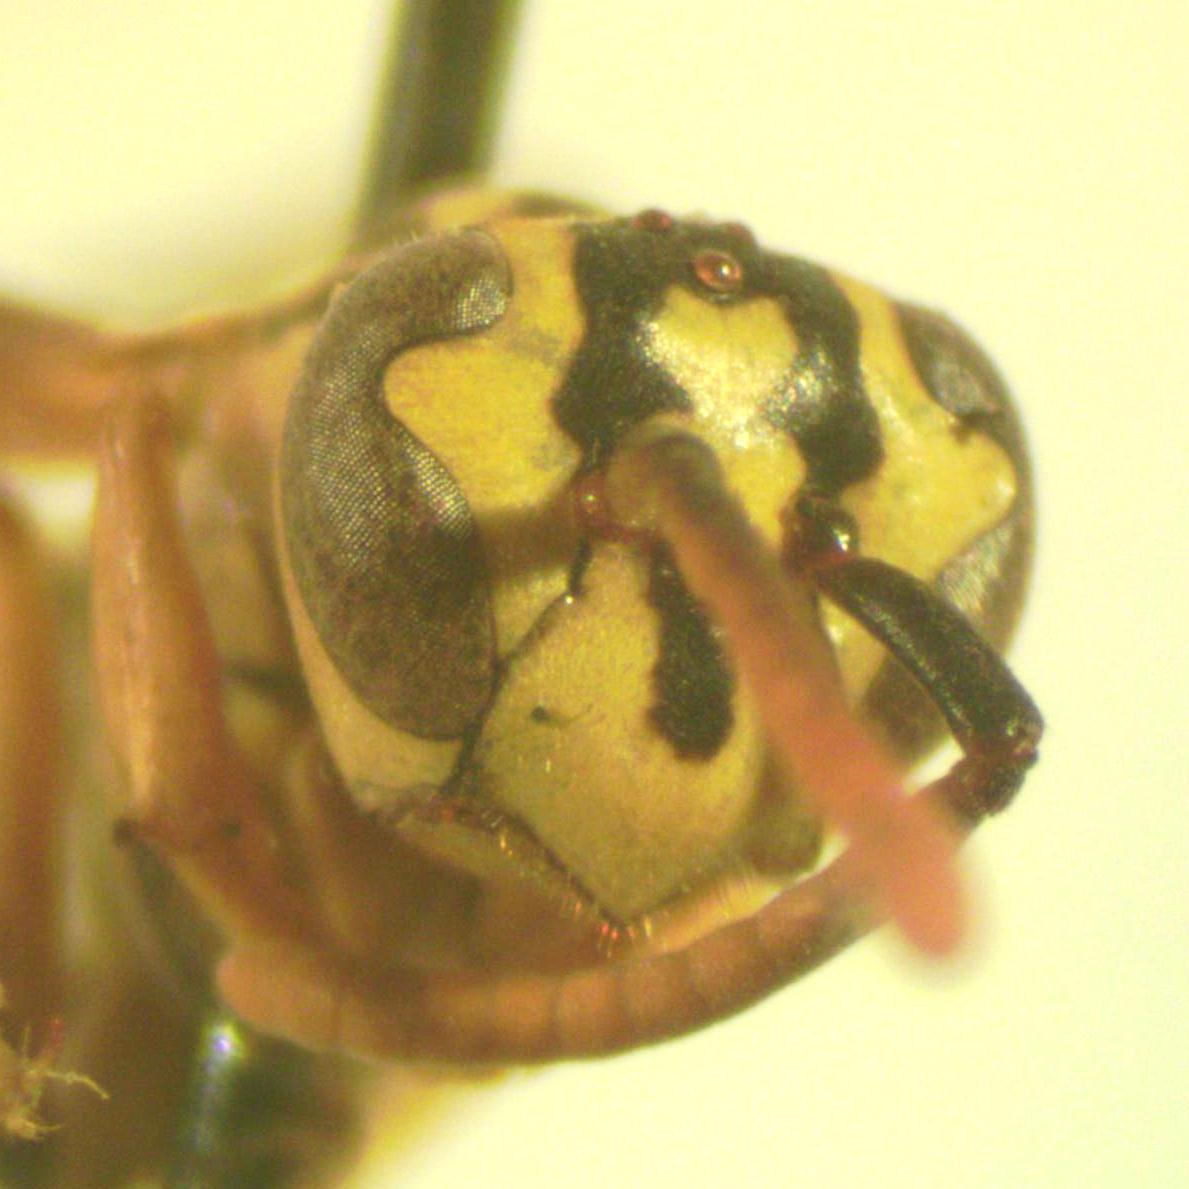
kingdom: Animalia
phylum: Arthropoda
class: Insecta
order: Hymenoptera
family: Vespidae
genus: Agelaia
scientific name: Agelaia areata
